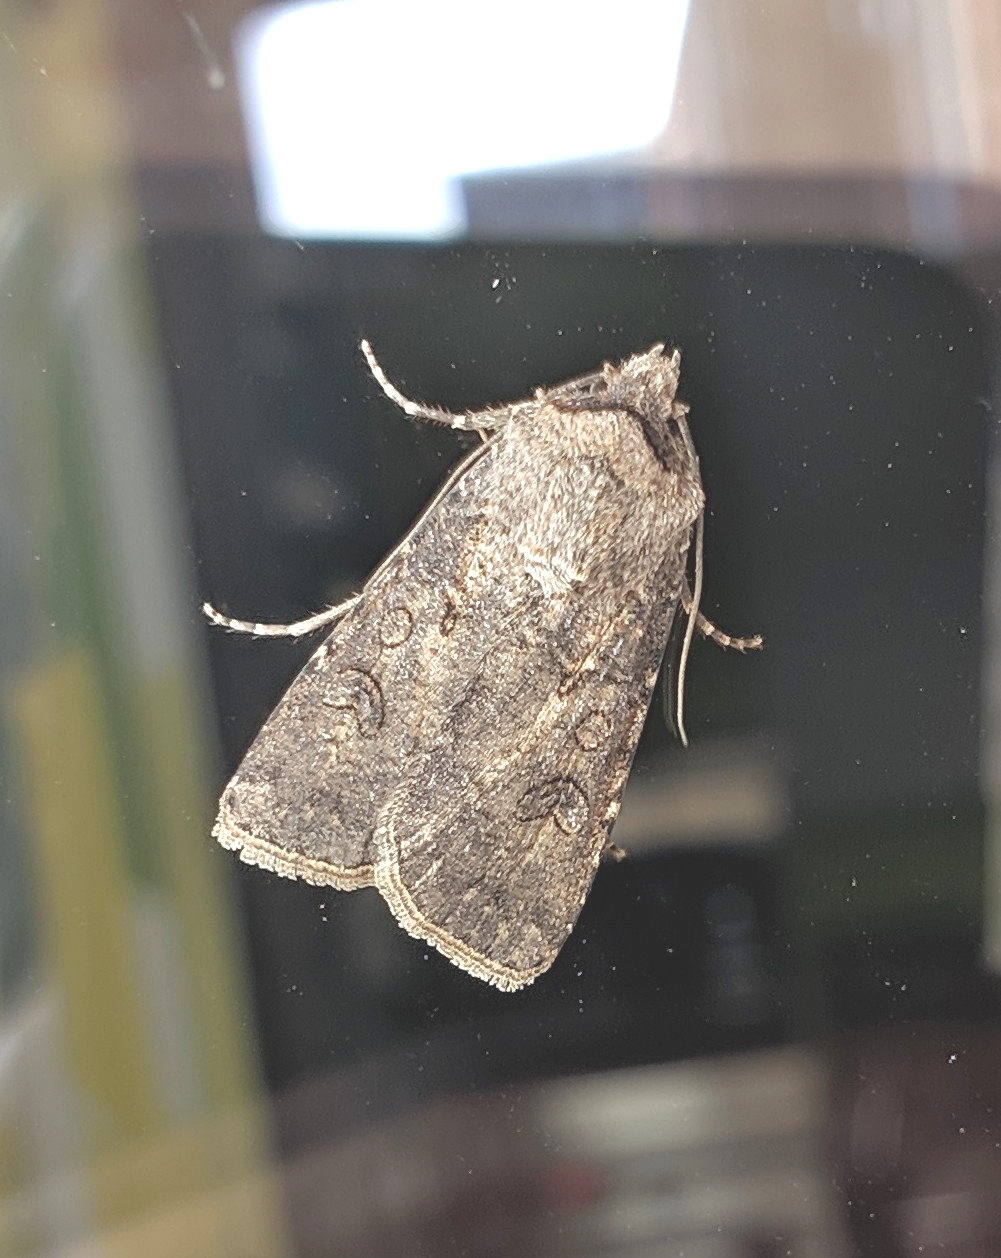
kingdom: Animalia
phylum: Arthropoda
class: Insecta
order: Lepidoptera
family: Noctuidae
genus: Agrotis
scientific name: Agrotis segetum
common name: Turnip moth
